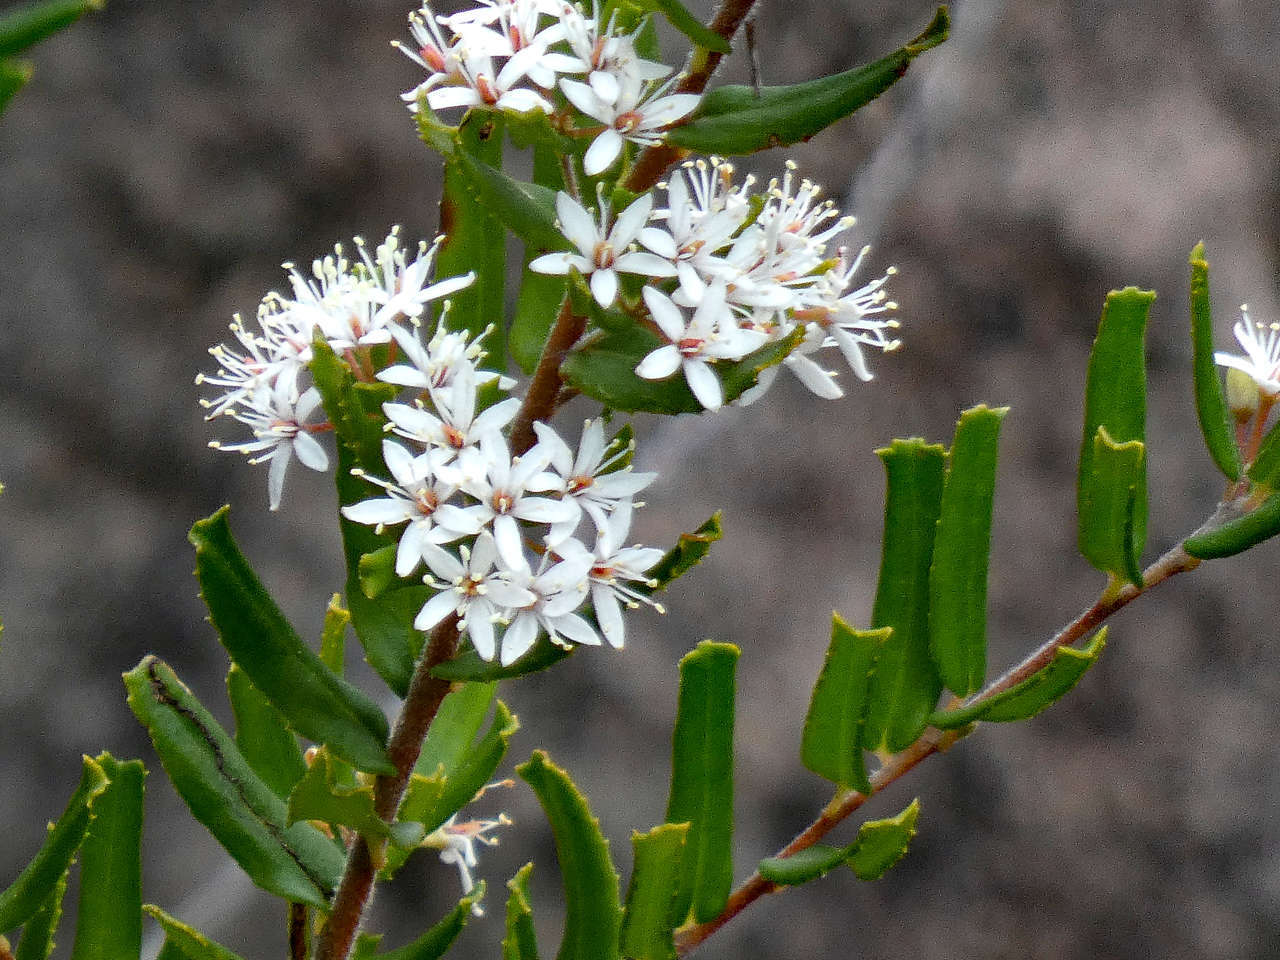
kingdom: Plantae
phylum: Tracheophyta
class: Magnoliopsida
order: Sapindales
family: Rutaceae
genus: Leionema
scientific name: Leionema bilobum
